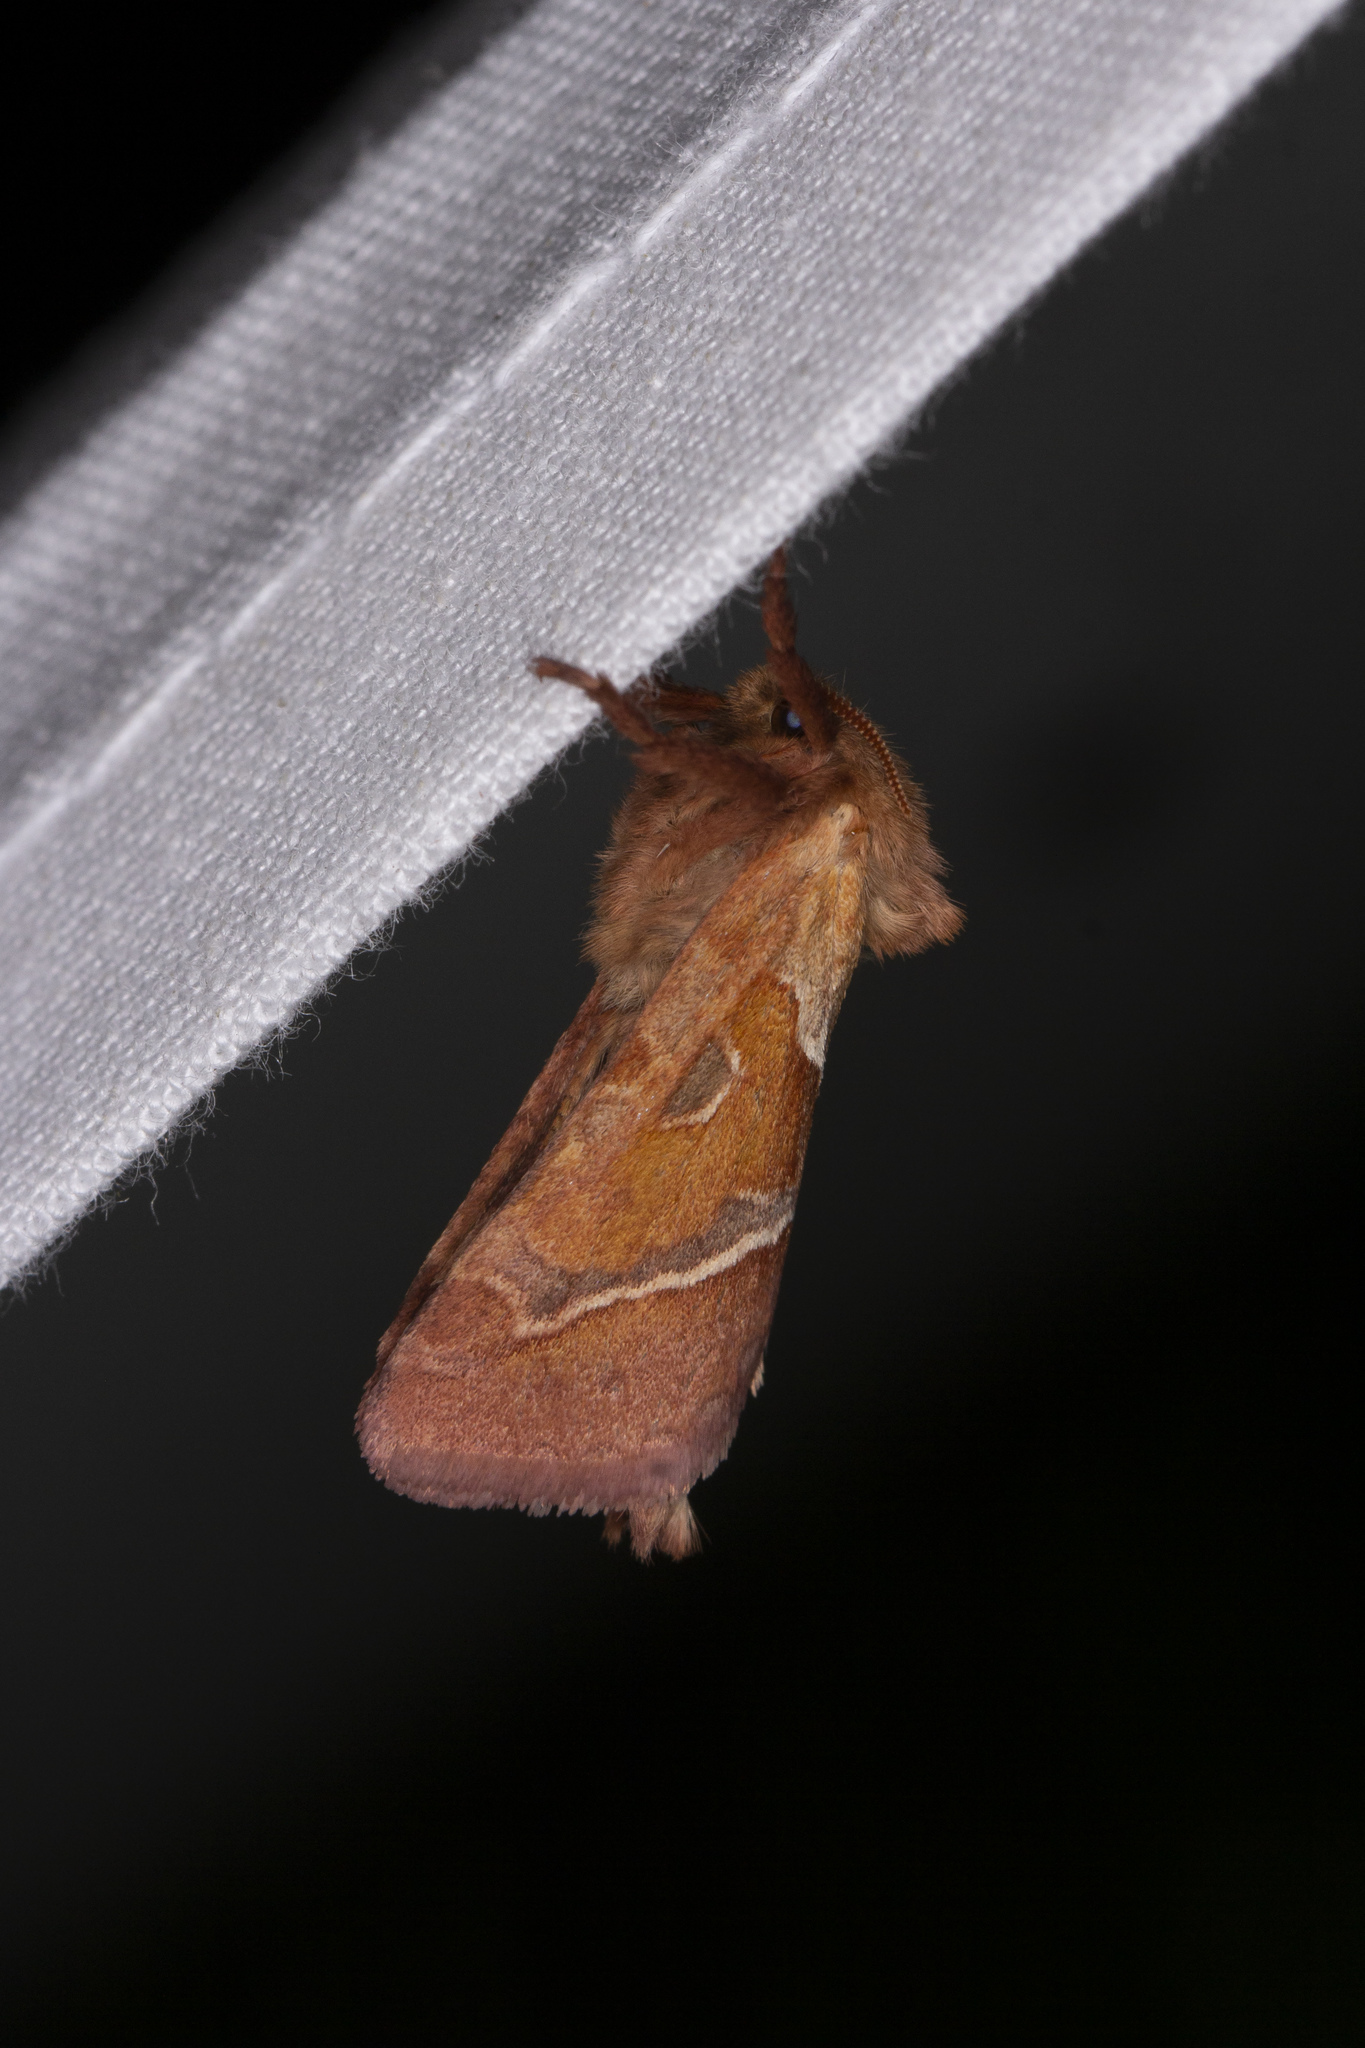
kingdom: Animalia
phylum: Arthropoda
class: Insecta
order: Lepidoptera
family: Hepialidae
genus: Triodia
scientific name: Triodia sylvina
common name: Orange swift
